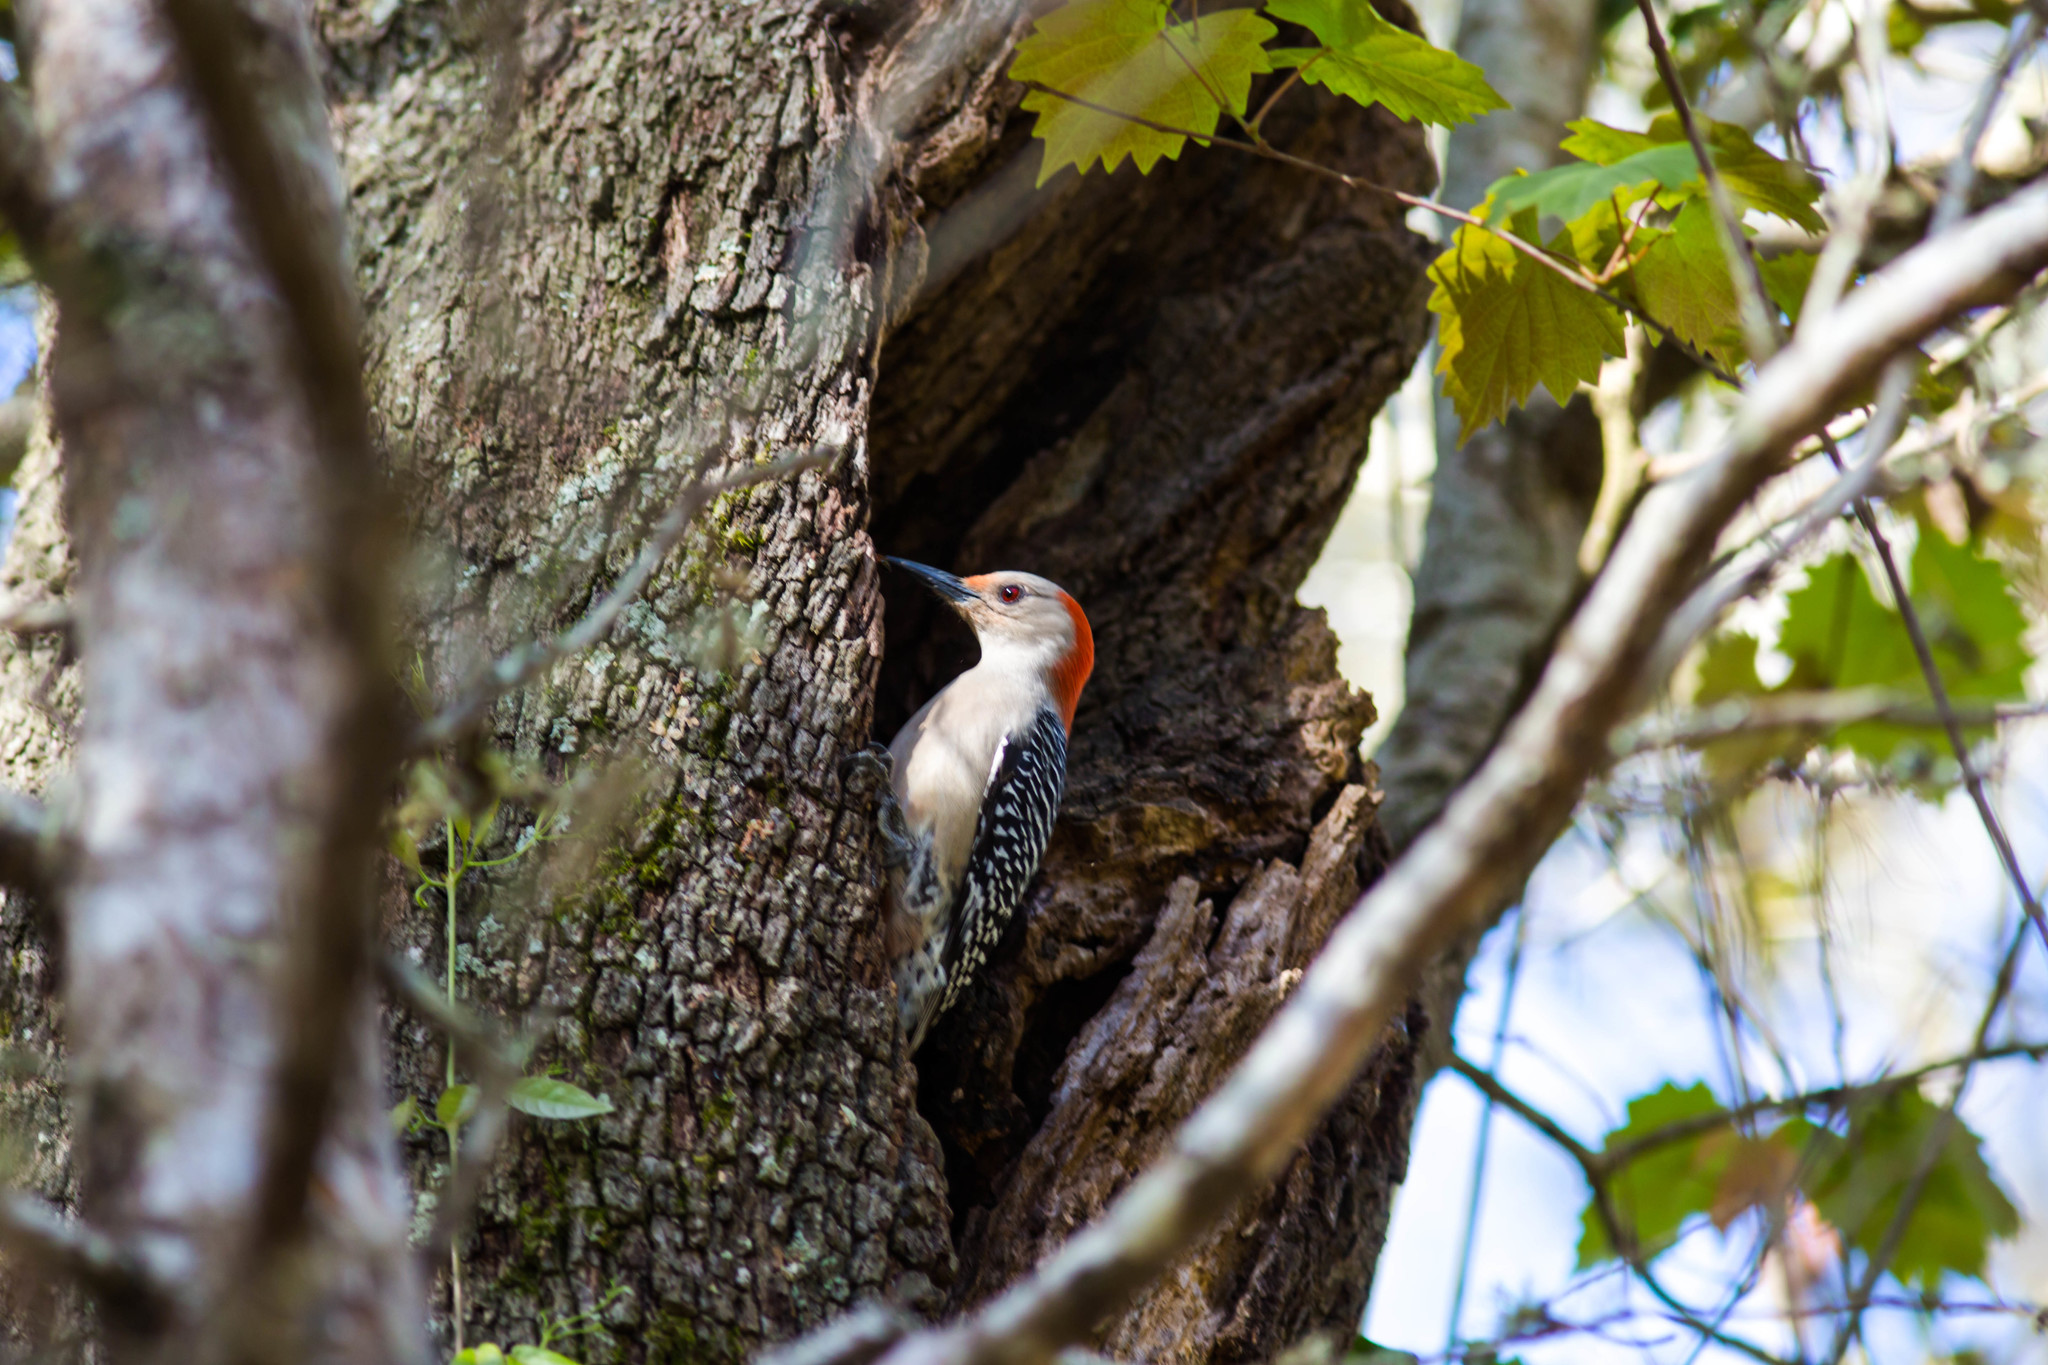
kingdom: Animalia
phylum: Chordata
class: Aves
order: Piciformes
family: Picidae
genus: Melanerpes
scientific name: Melanerpes carolinus
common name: Red-bellied woodpecker
